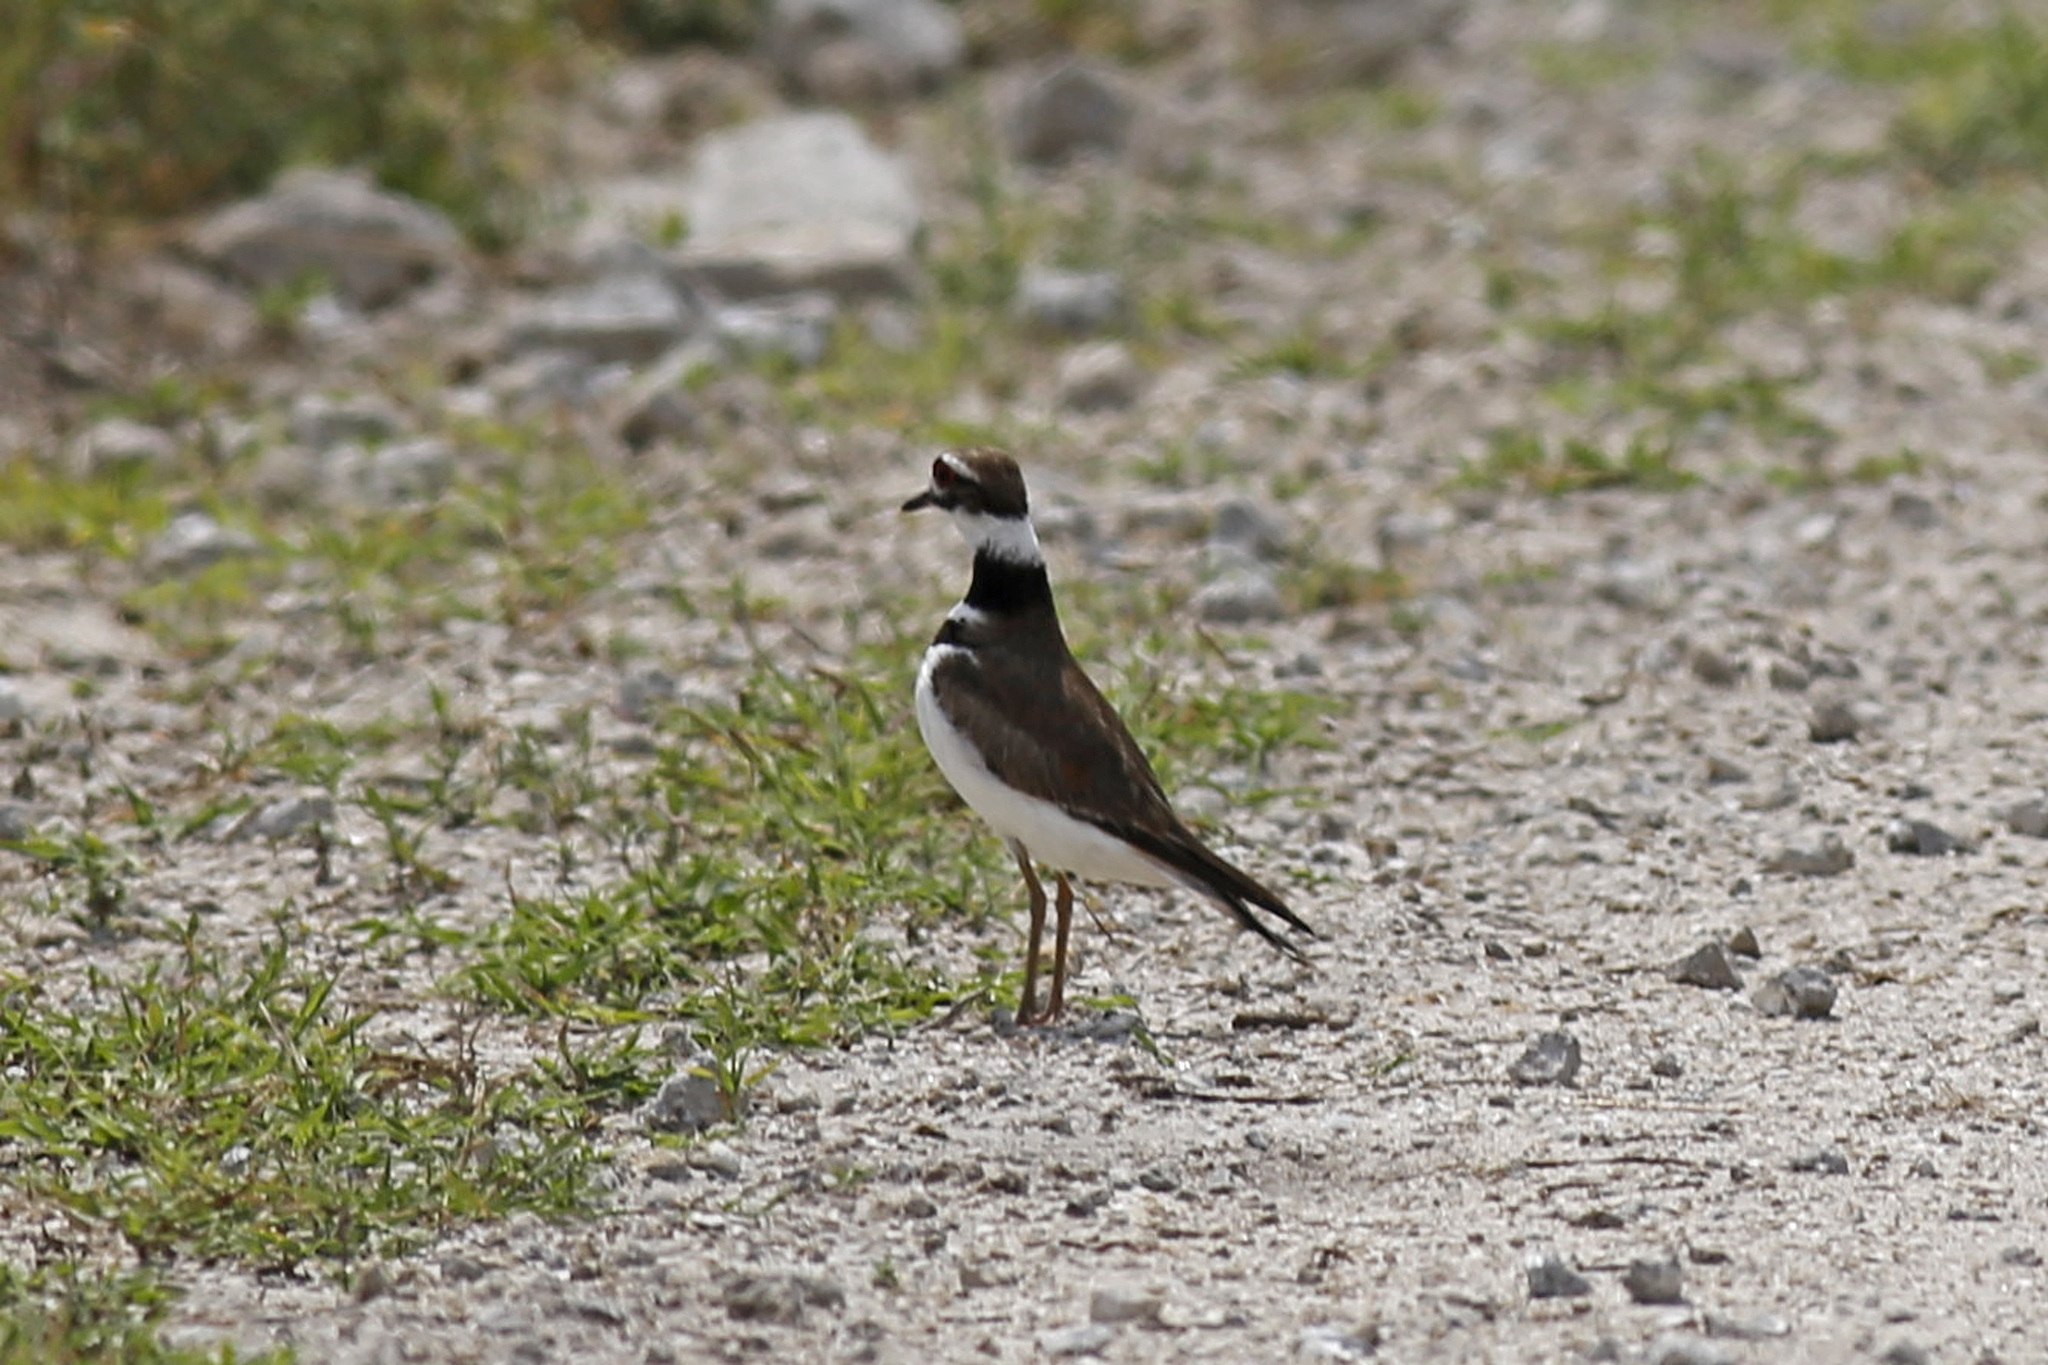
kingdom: Animalia
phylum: Chordata
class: Aves
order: Charadriiformes
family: Charadriidae
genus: Charadrius
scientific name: Charadrius vociferus
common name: Killdeer
